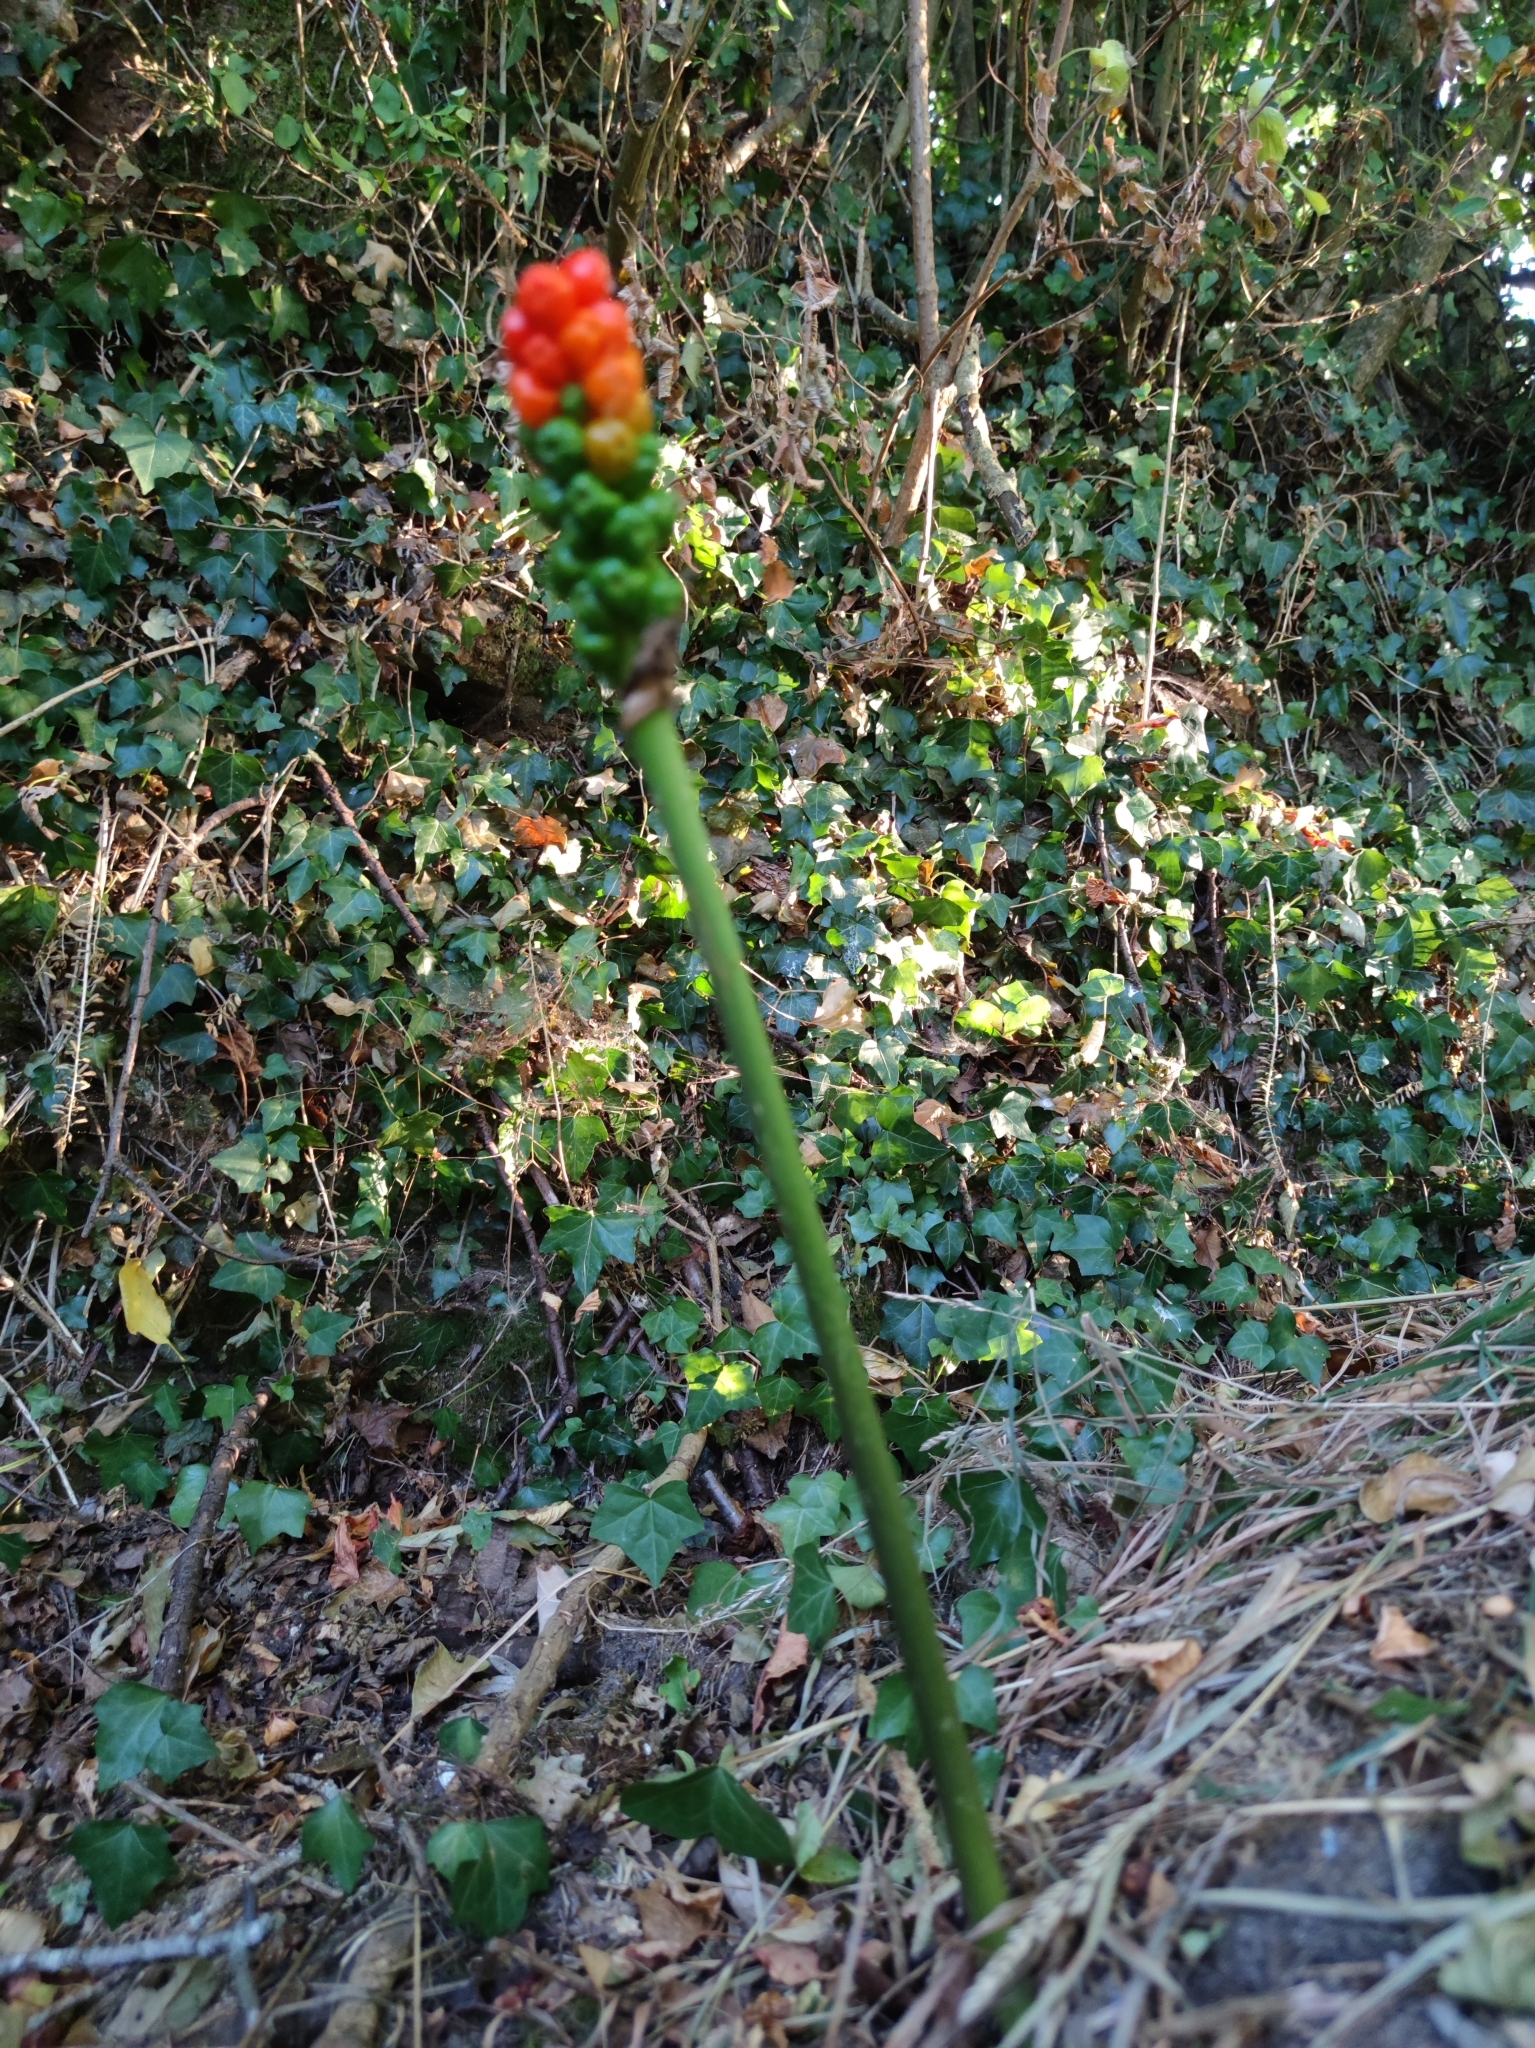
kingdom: Plantae
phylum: Tracheophyta
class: Liliopsida
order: Alismatales
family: Araceae
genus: Arum
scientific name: Arum italicum
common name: Italian lords-and-ladies
